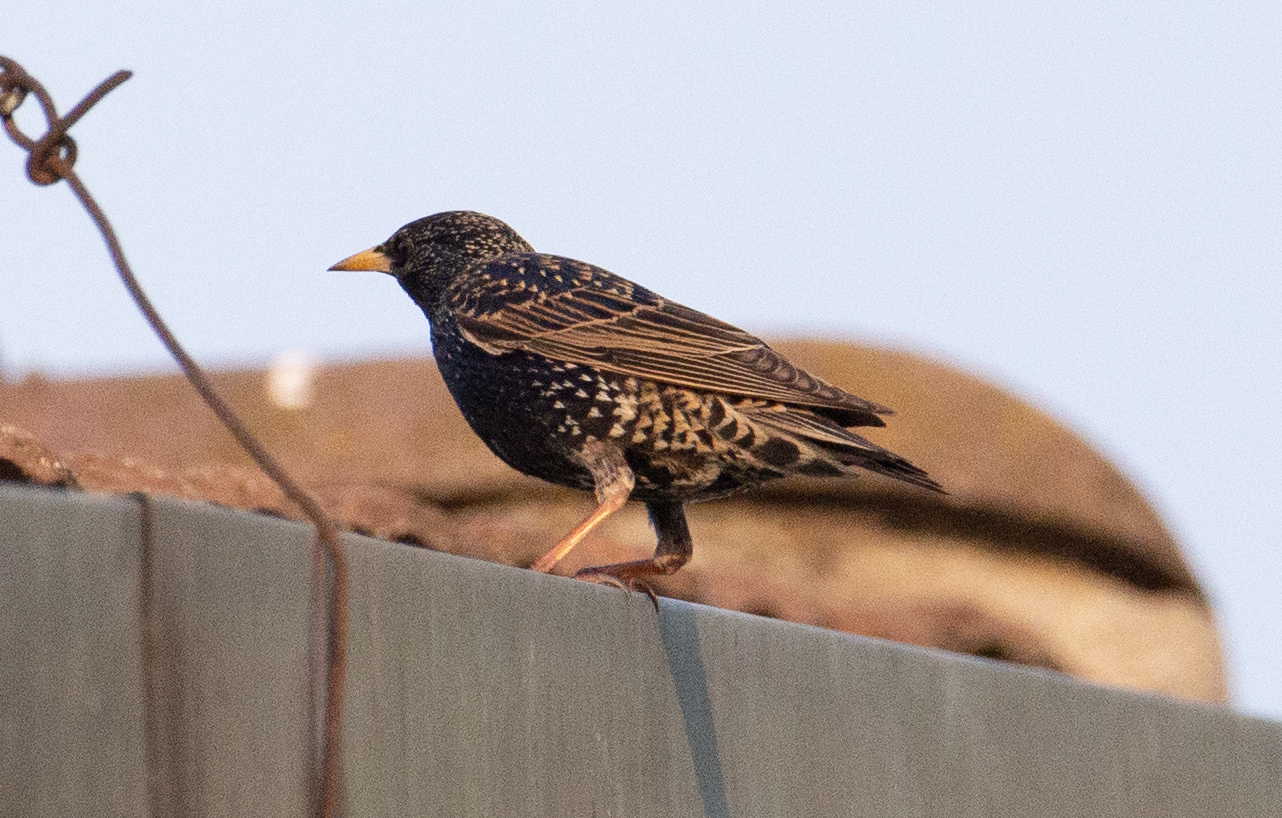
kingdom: Animalia
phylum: Chordata
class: Aves
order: Passeriformes
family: Sturnidae
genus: Sturnus
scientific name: Sturnus vulgaris
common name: Common starling
